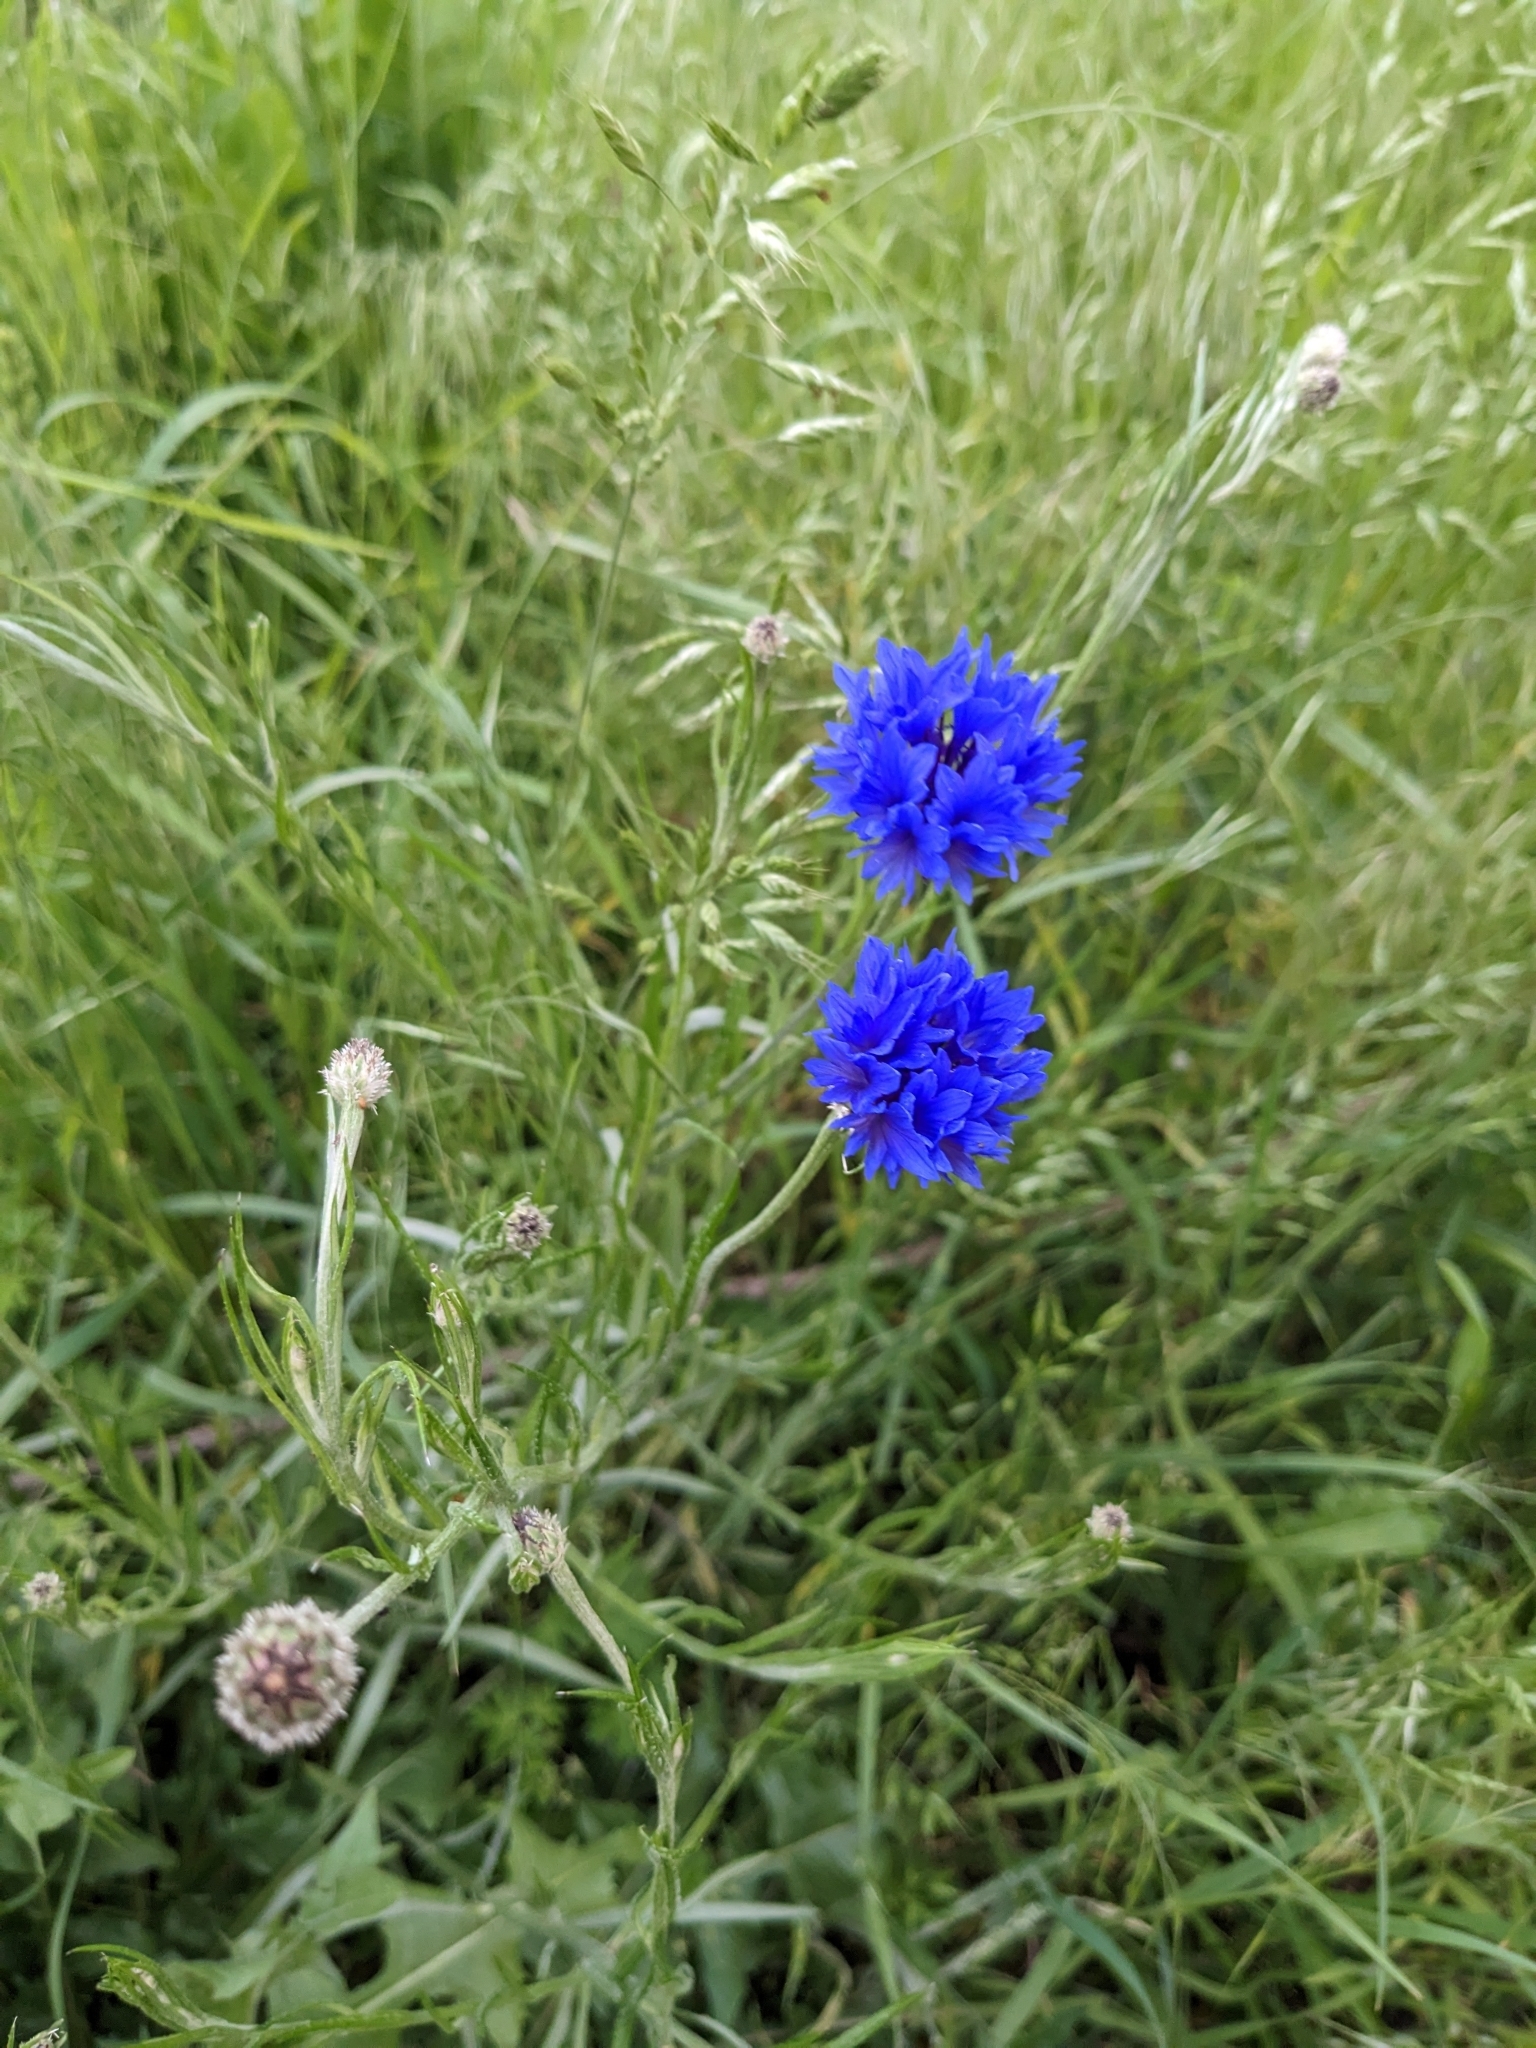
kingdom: Plantae
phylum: Tracheophyta
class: Magnoliopsida
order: Asterales
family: Asteraceae
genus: Centaurea
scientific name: Centaurea cyanus
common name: Cornflower
